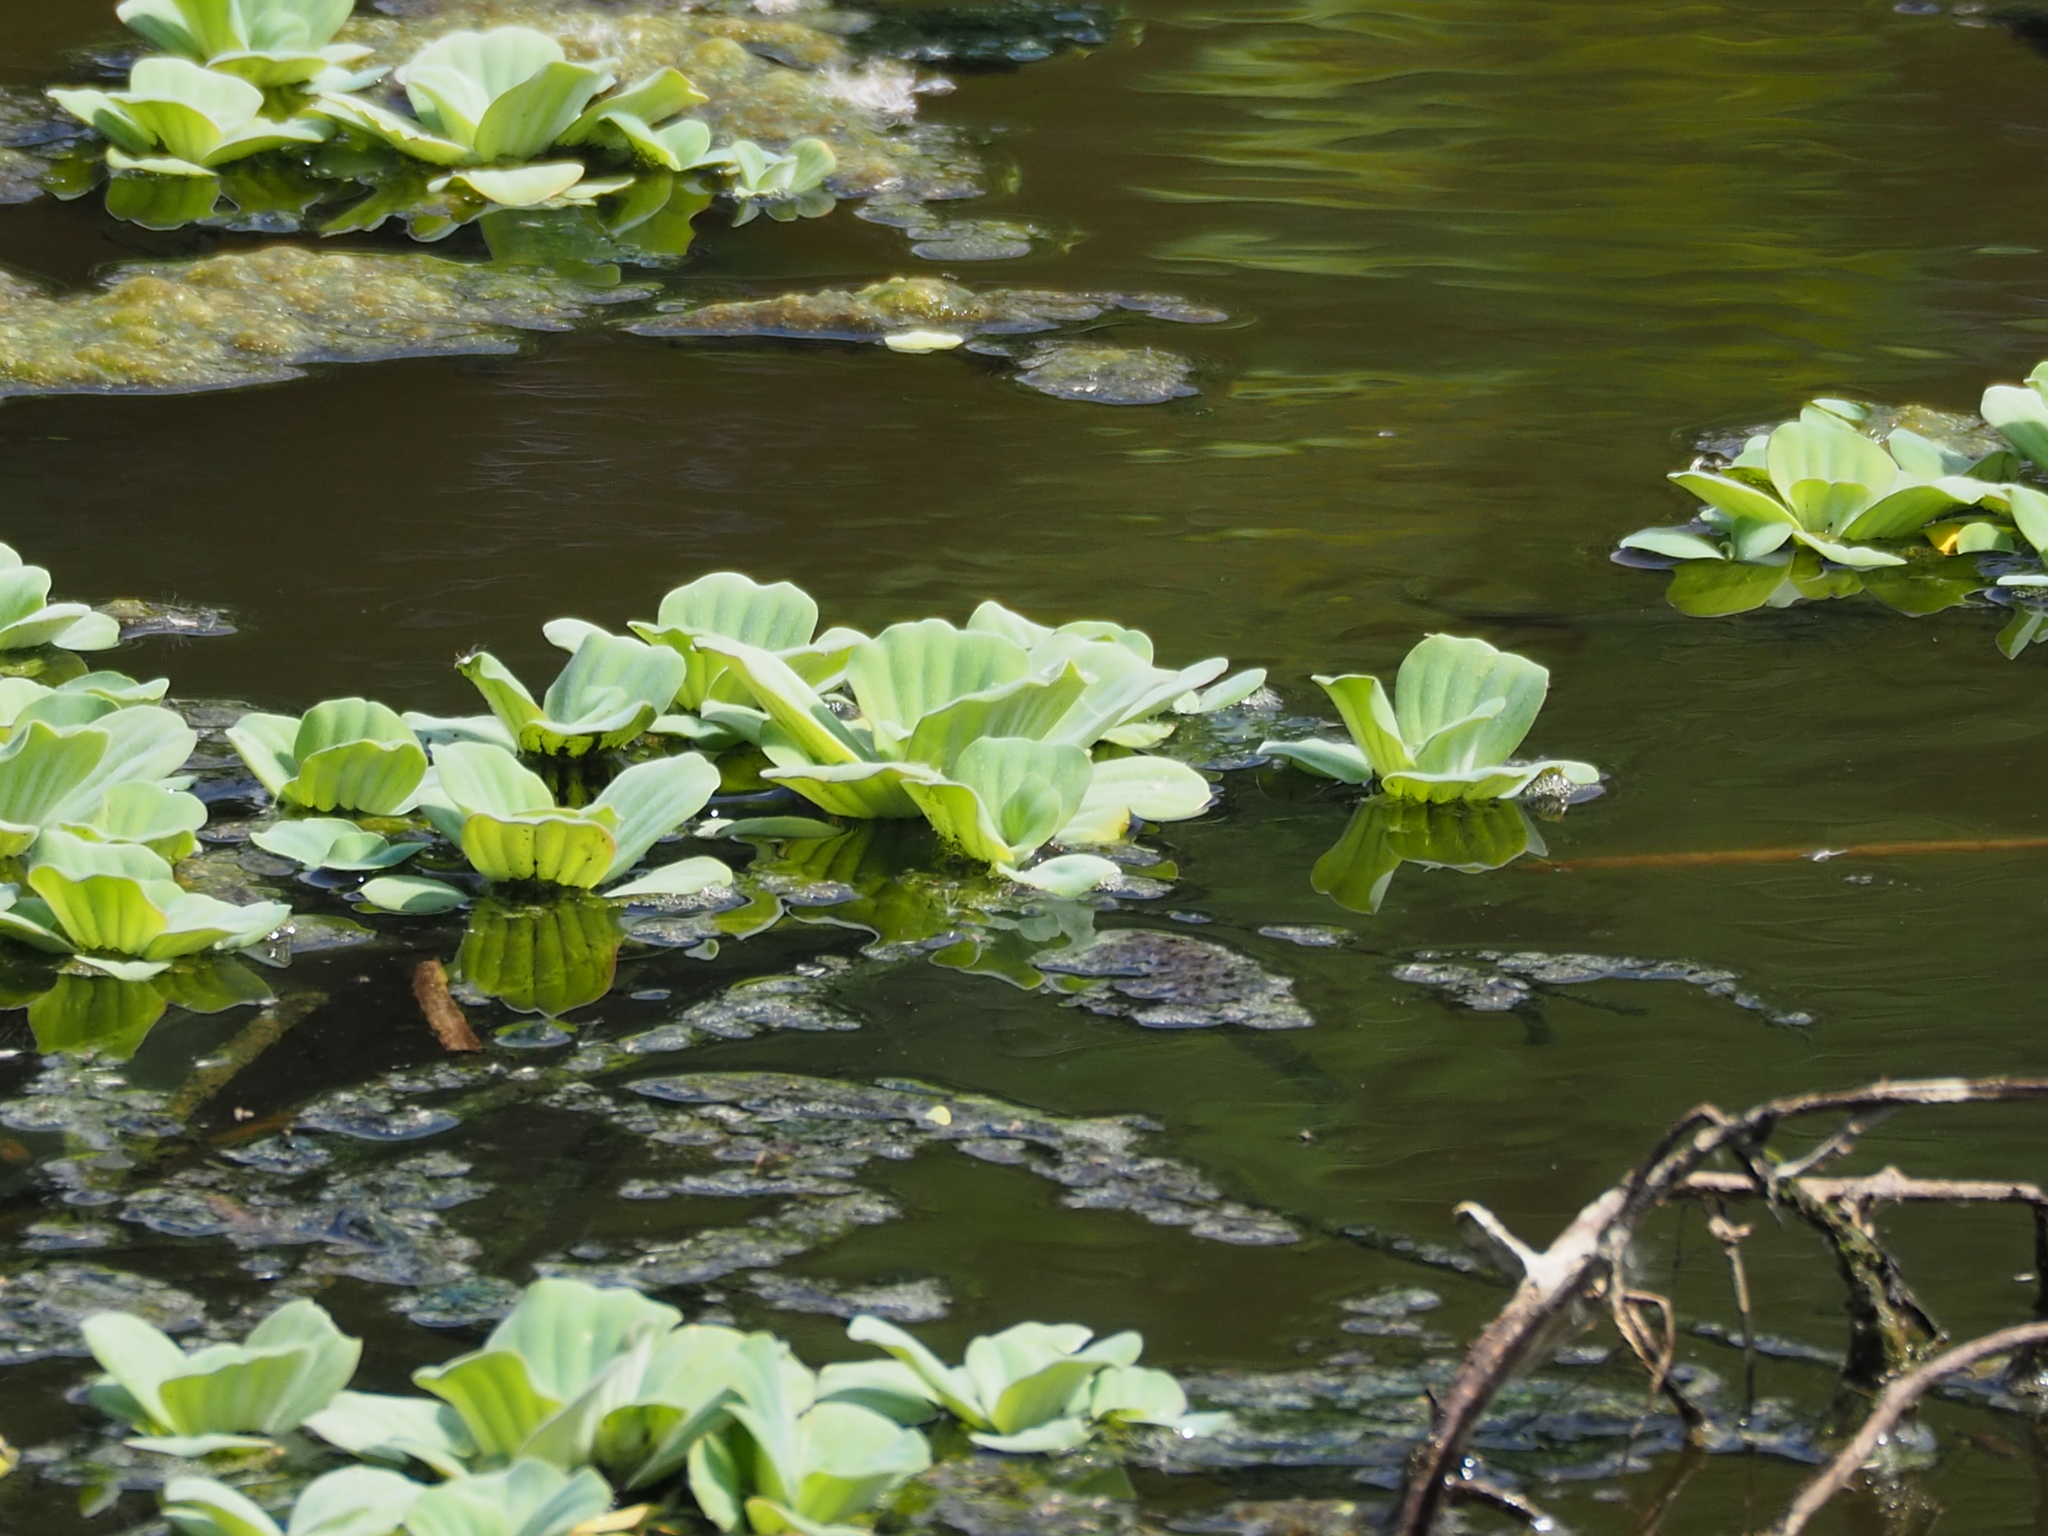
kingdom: Plantae
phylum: Tracheophyta
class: Liliopsida
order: Alismatales
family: Araceae
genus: Pistia
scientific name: Pistia stratiotes
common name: Water lettuce
